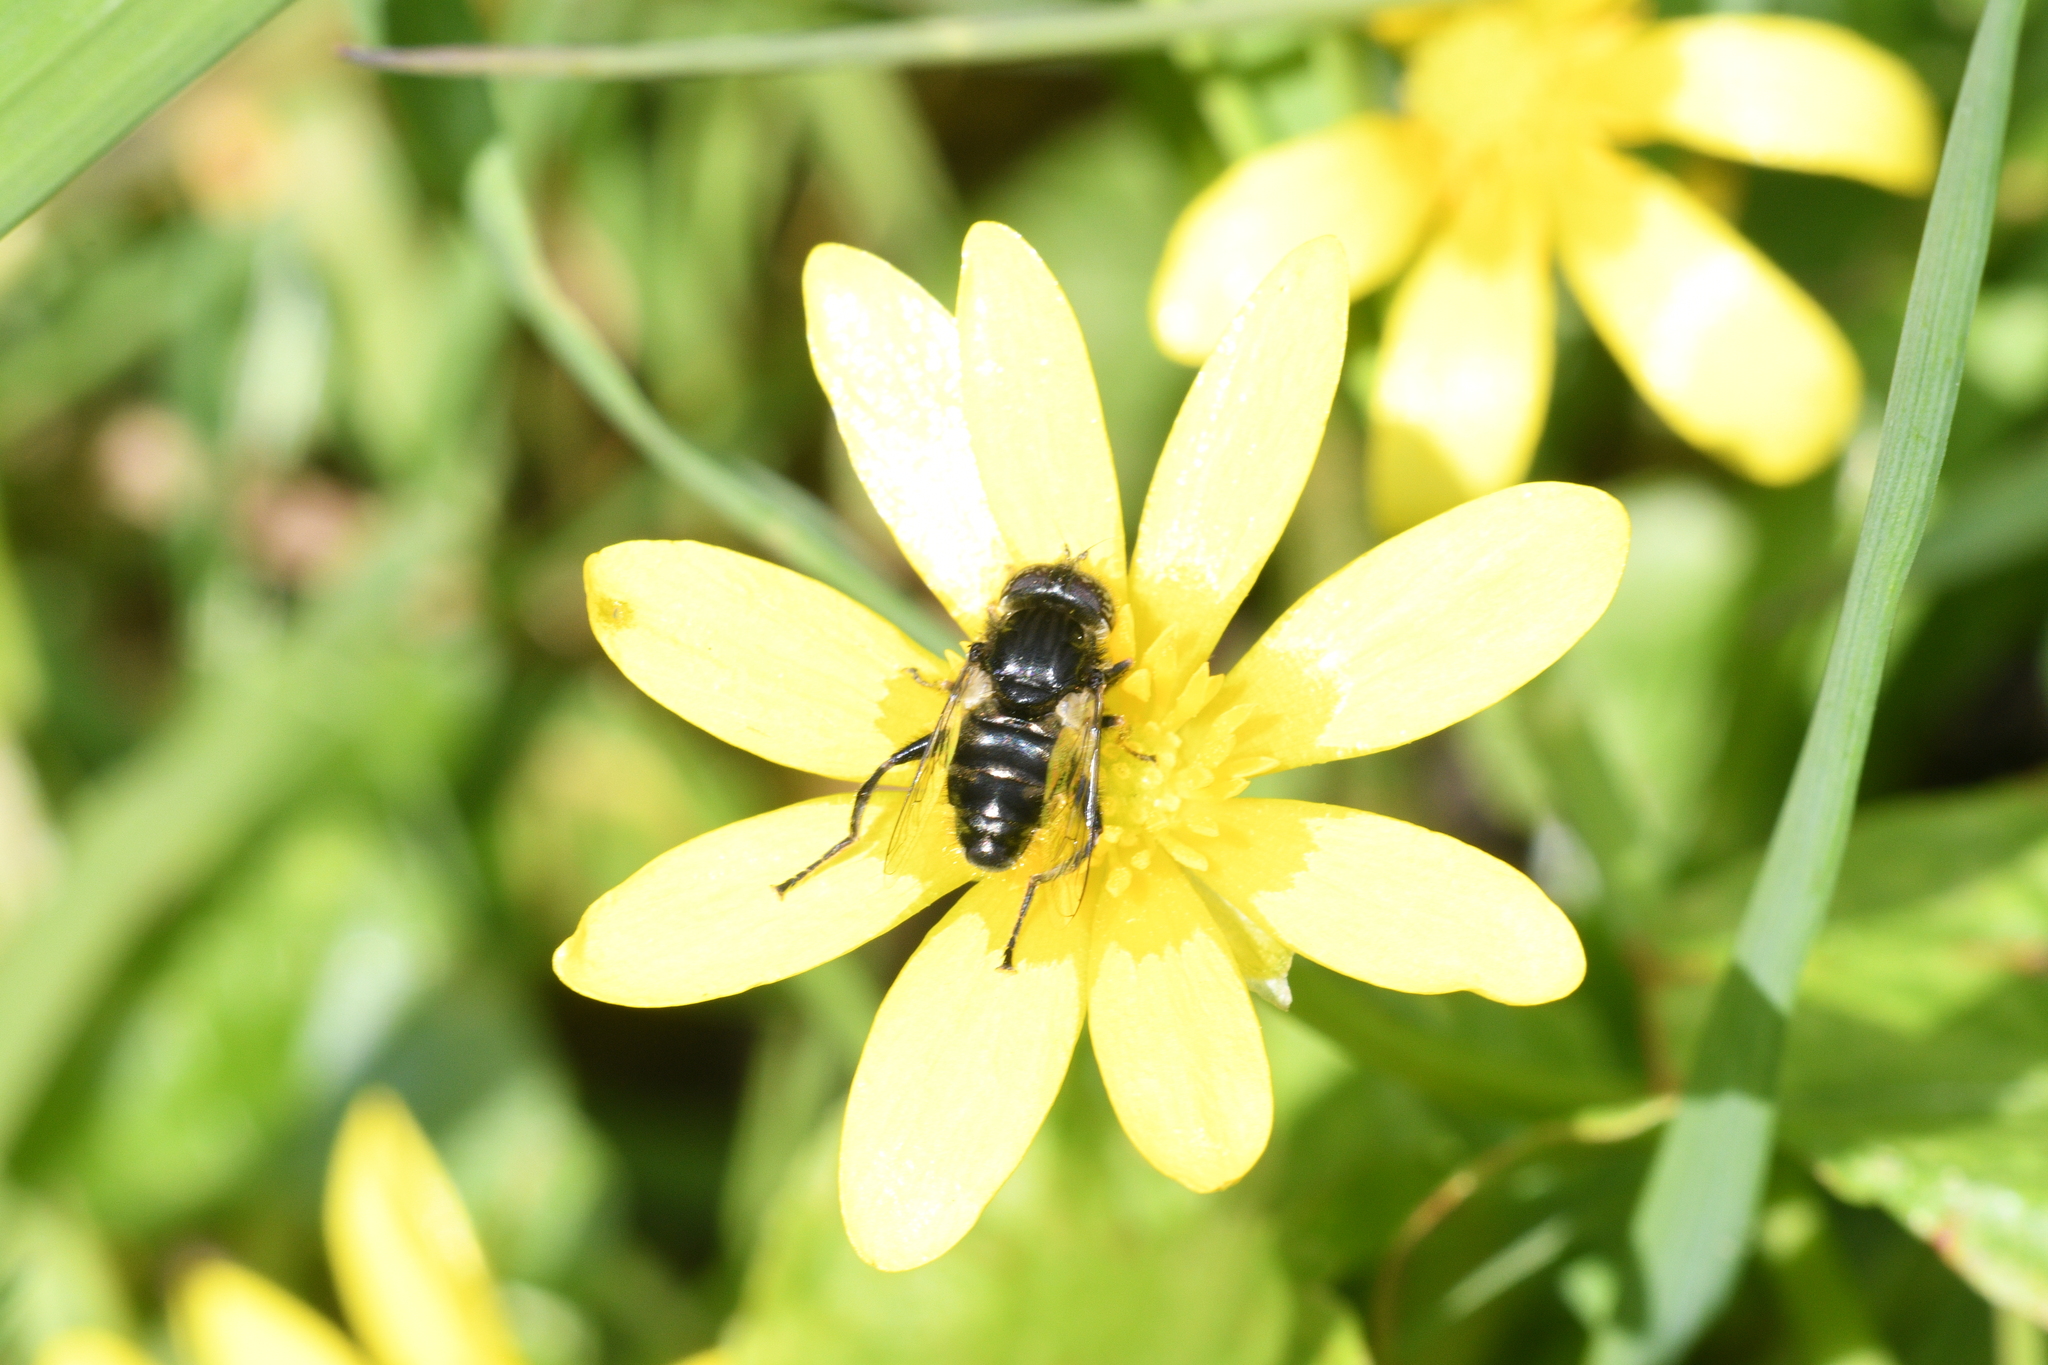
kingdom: Animalia
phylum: Arthropoda
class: Insecta
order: Diptera
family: Syrphidae
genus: Eristalinus
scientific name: Eristalinus sepulchralis
